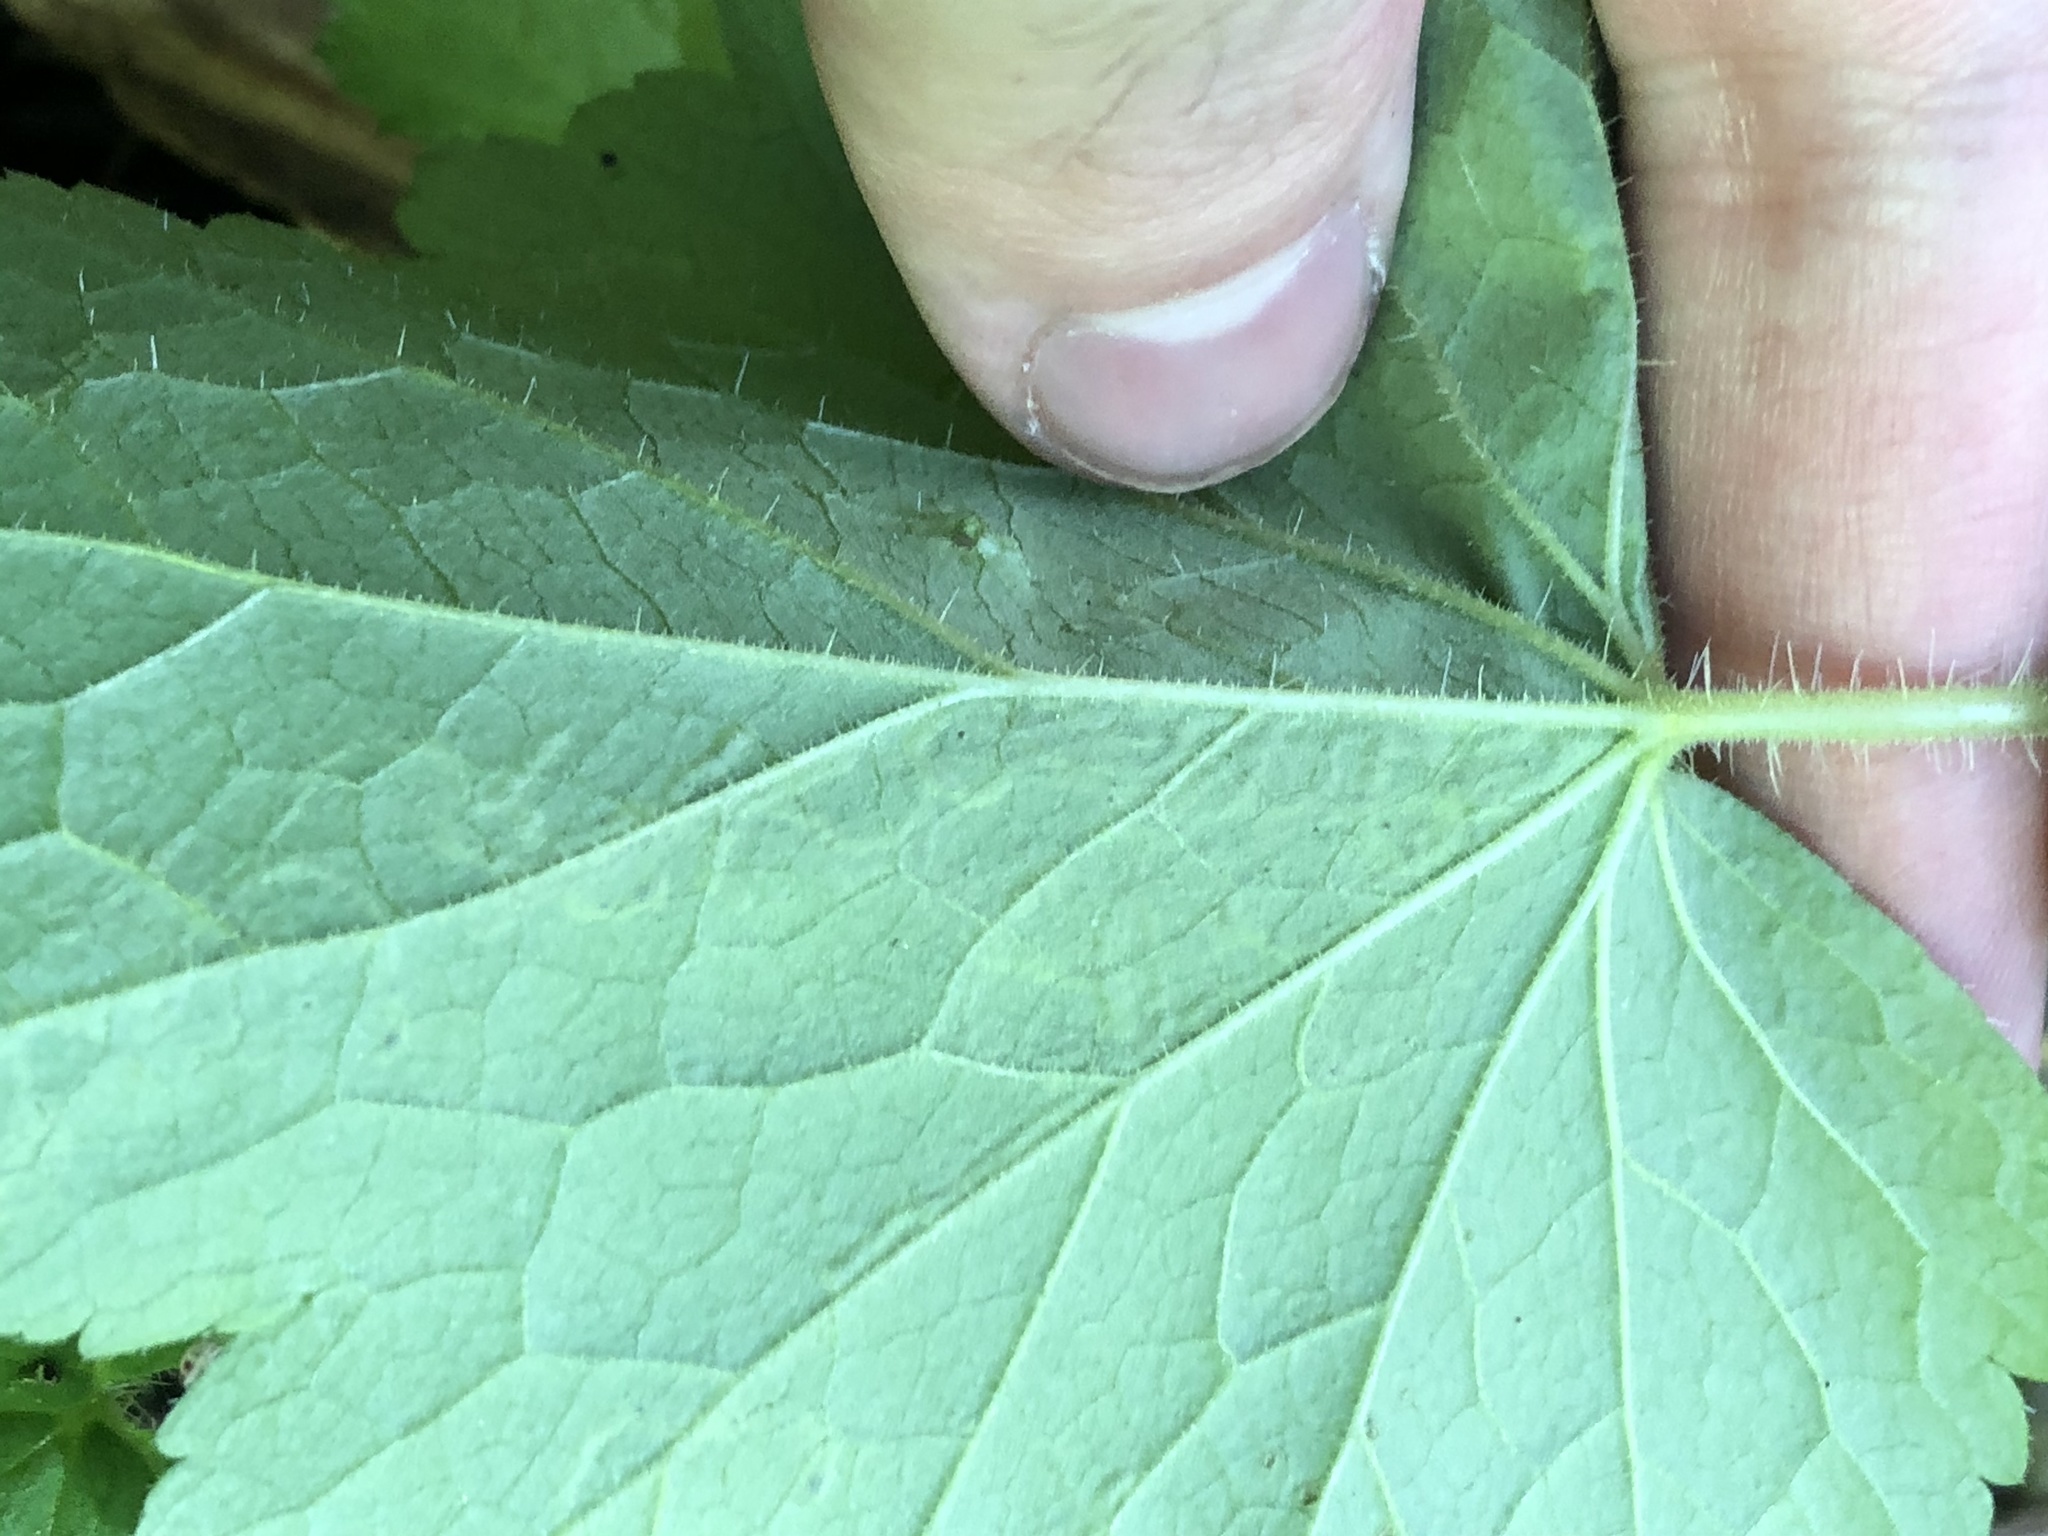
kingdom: Animalia
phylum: Arthropoda
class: Insecta
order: Diptera
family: Agromyzidae
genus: Phytomyza
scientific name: Phytomyza tiarellae
